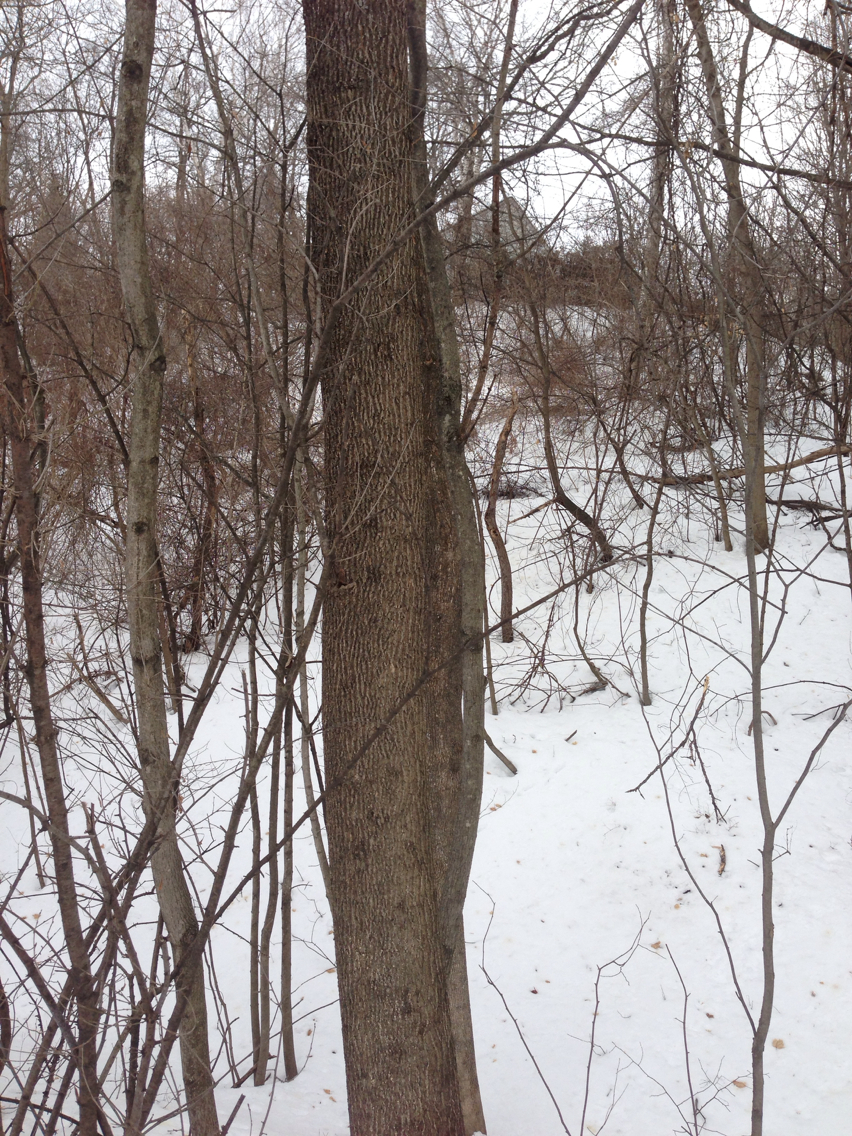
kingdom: Plantae
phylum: Tracheophyta
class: Magnoliopsida
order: Lamiales
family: Oleaceae
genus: Fraxinus
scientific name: Fraxinus americana
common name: White ash
